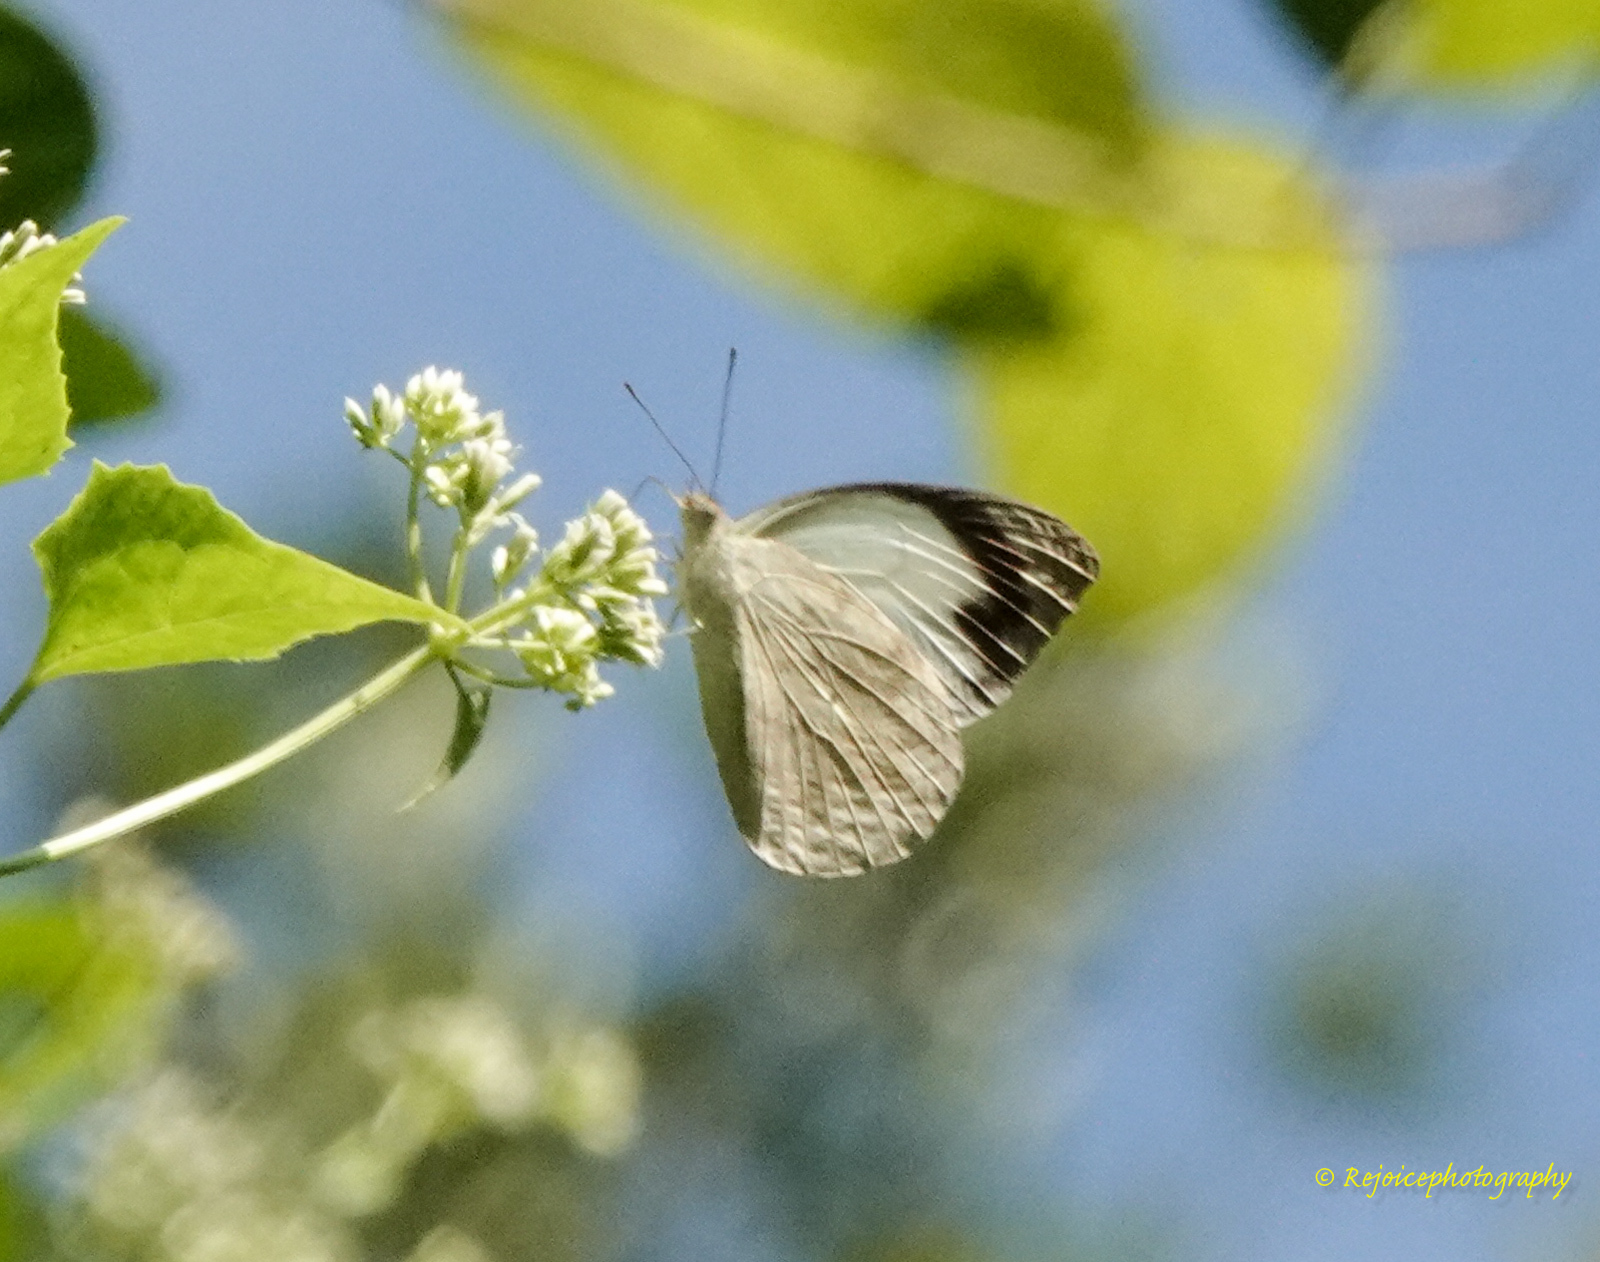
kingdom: Animalia
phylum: Arthropoda
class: Insecta
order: Lepidoptera
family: Pieridae
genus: Appias
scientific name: Appias indra
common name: Plain puffin
